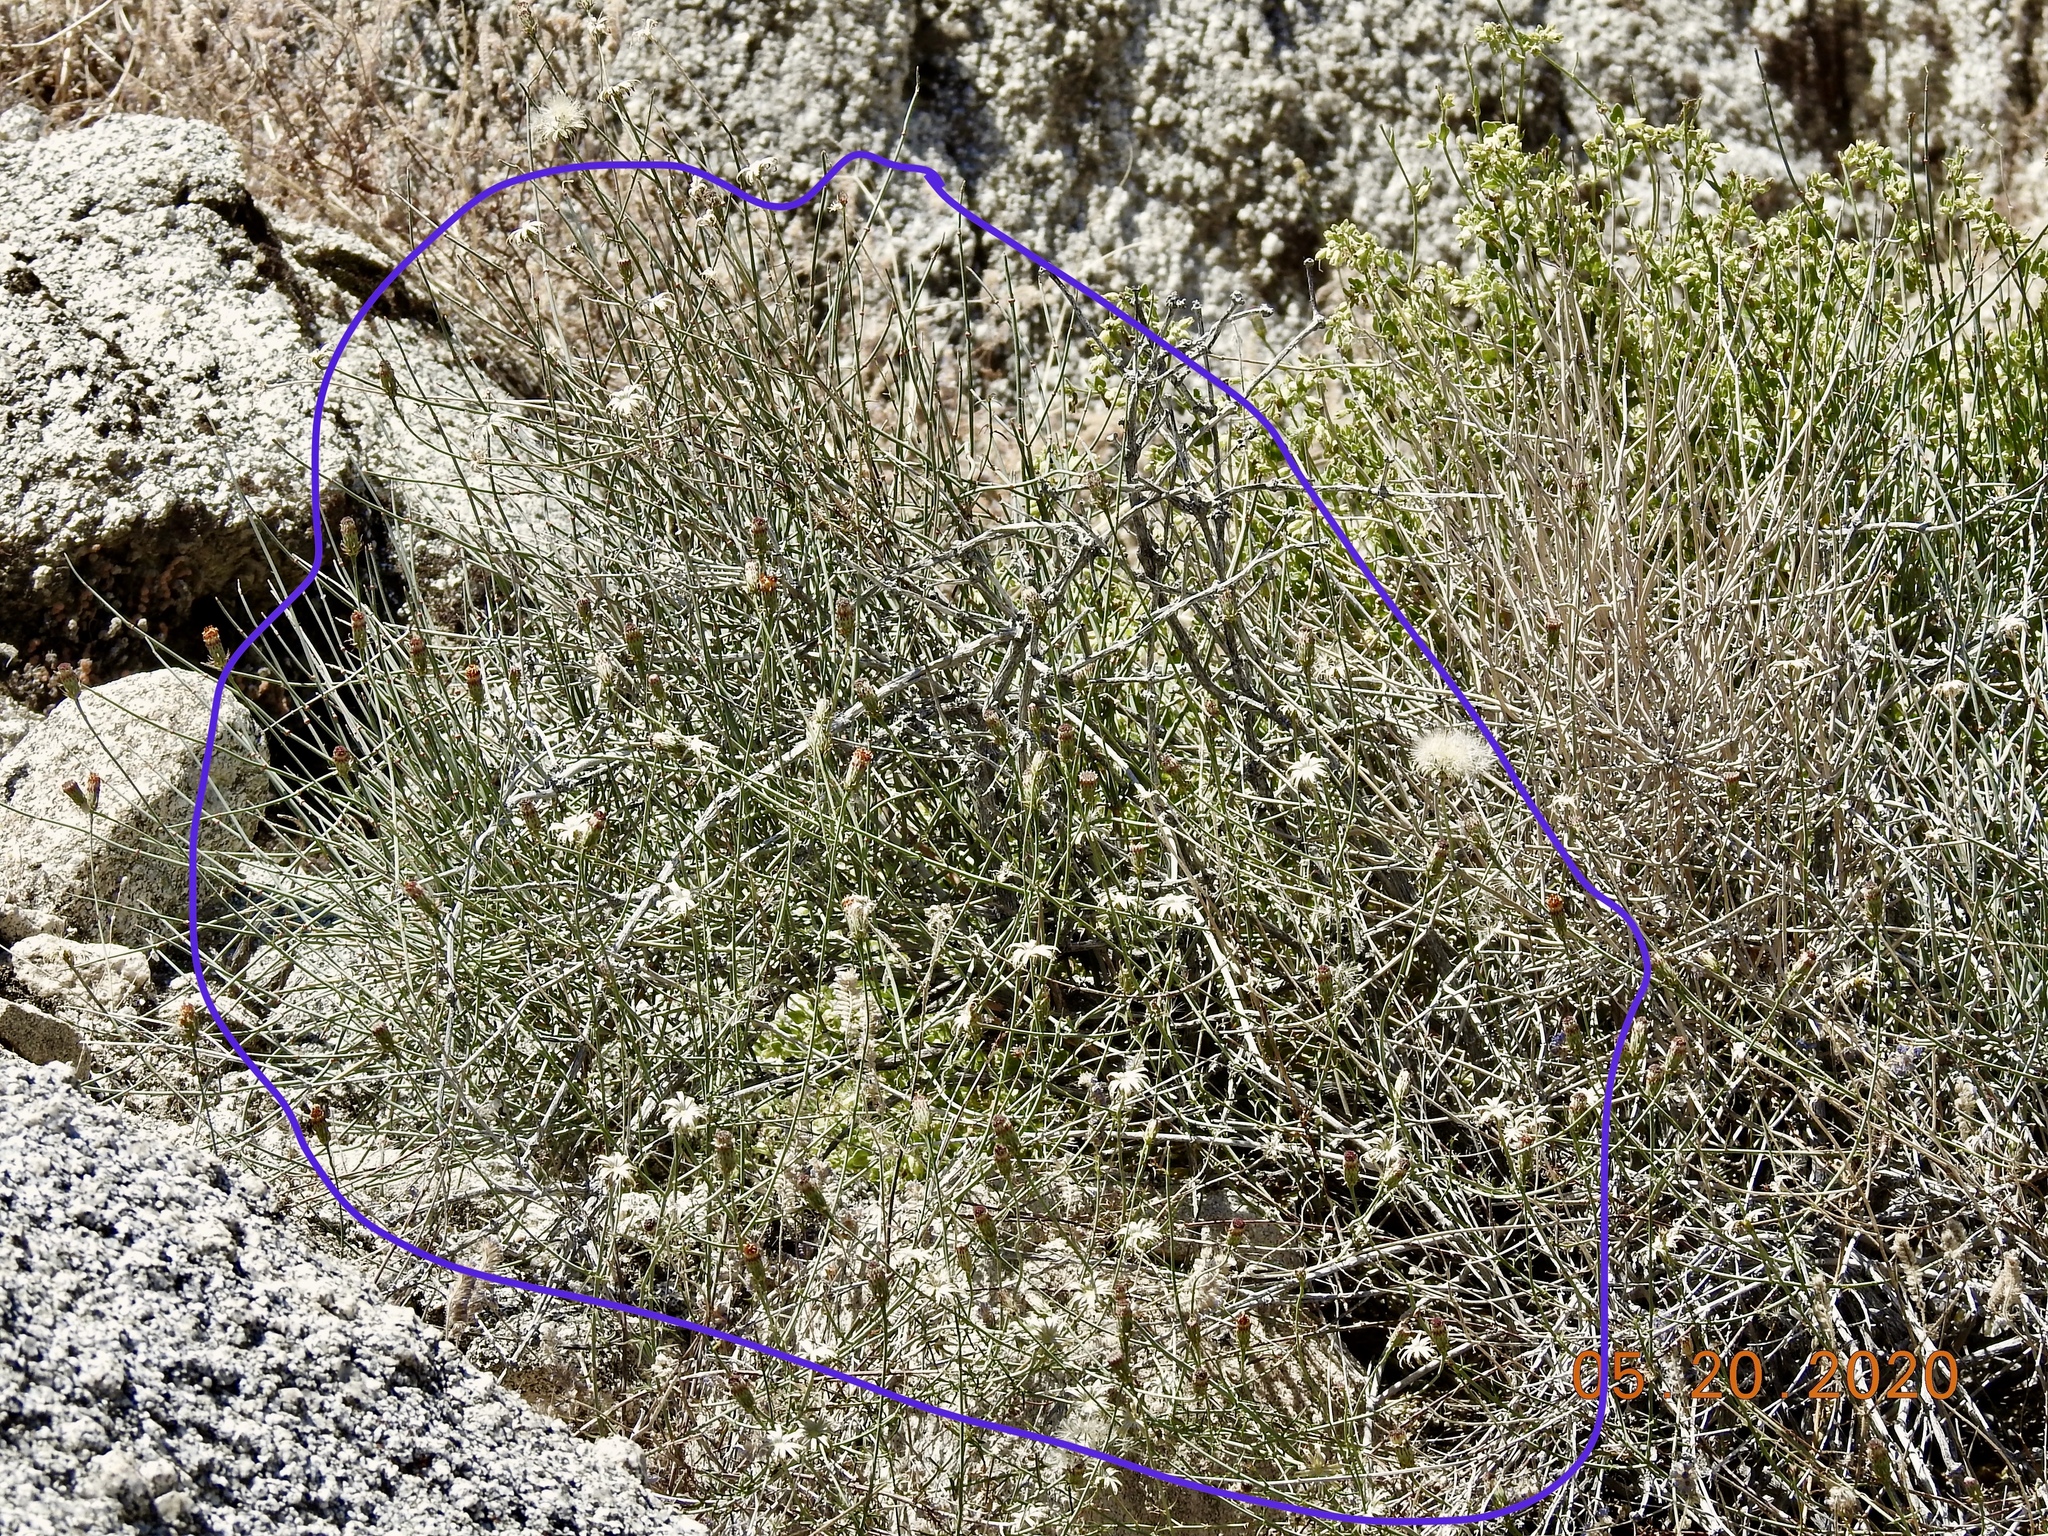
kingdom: Plantae
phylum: Tracheophyta
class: Magnoliopsida
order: Asterales
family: Asteraceae
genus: Adenophyllum
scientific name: Adenophyllum porophylloides
